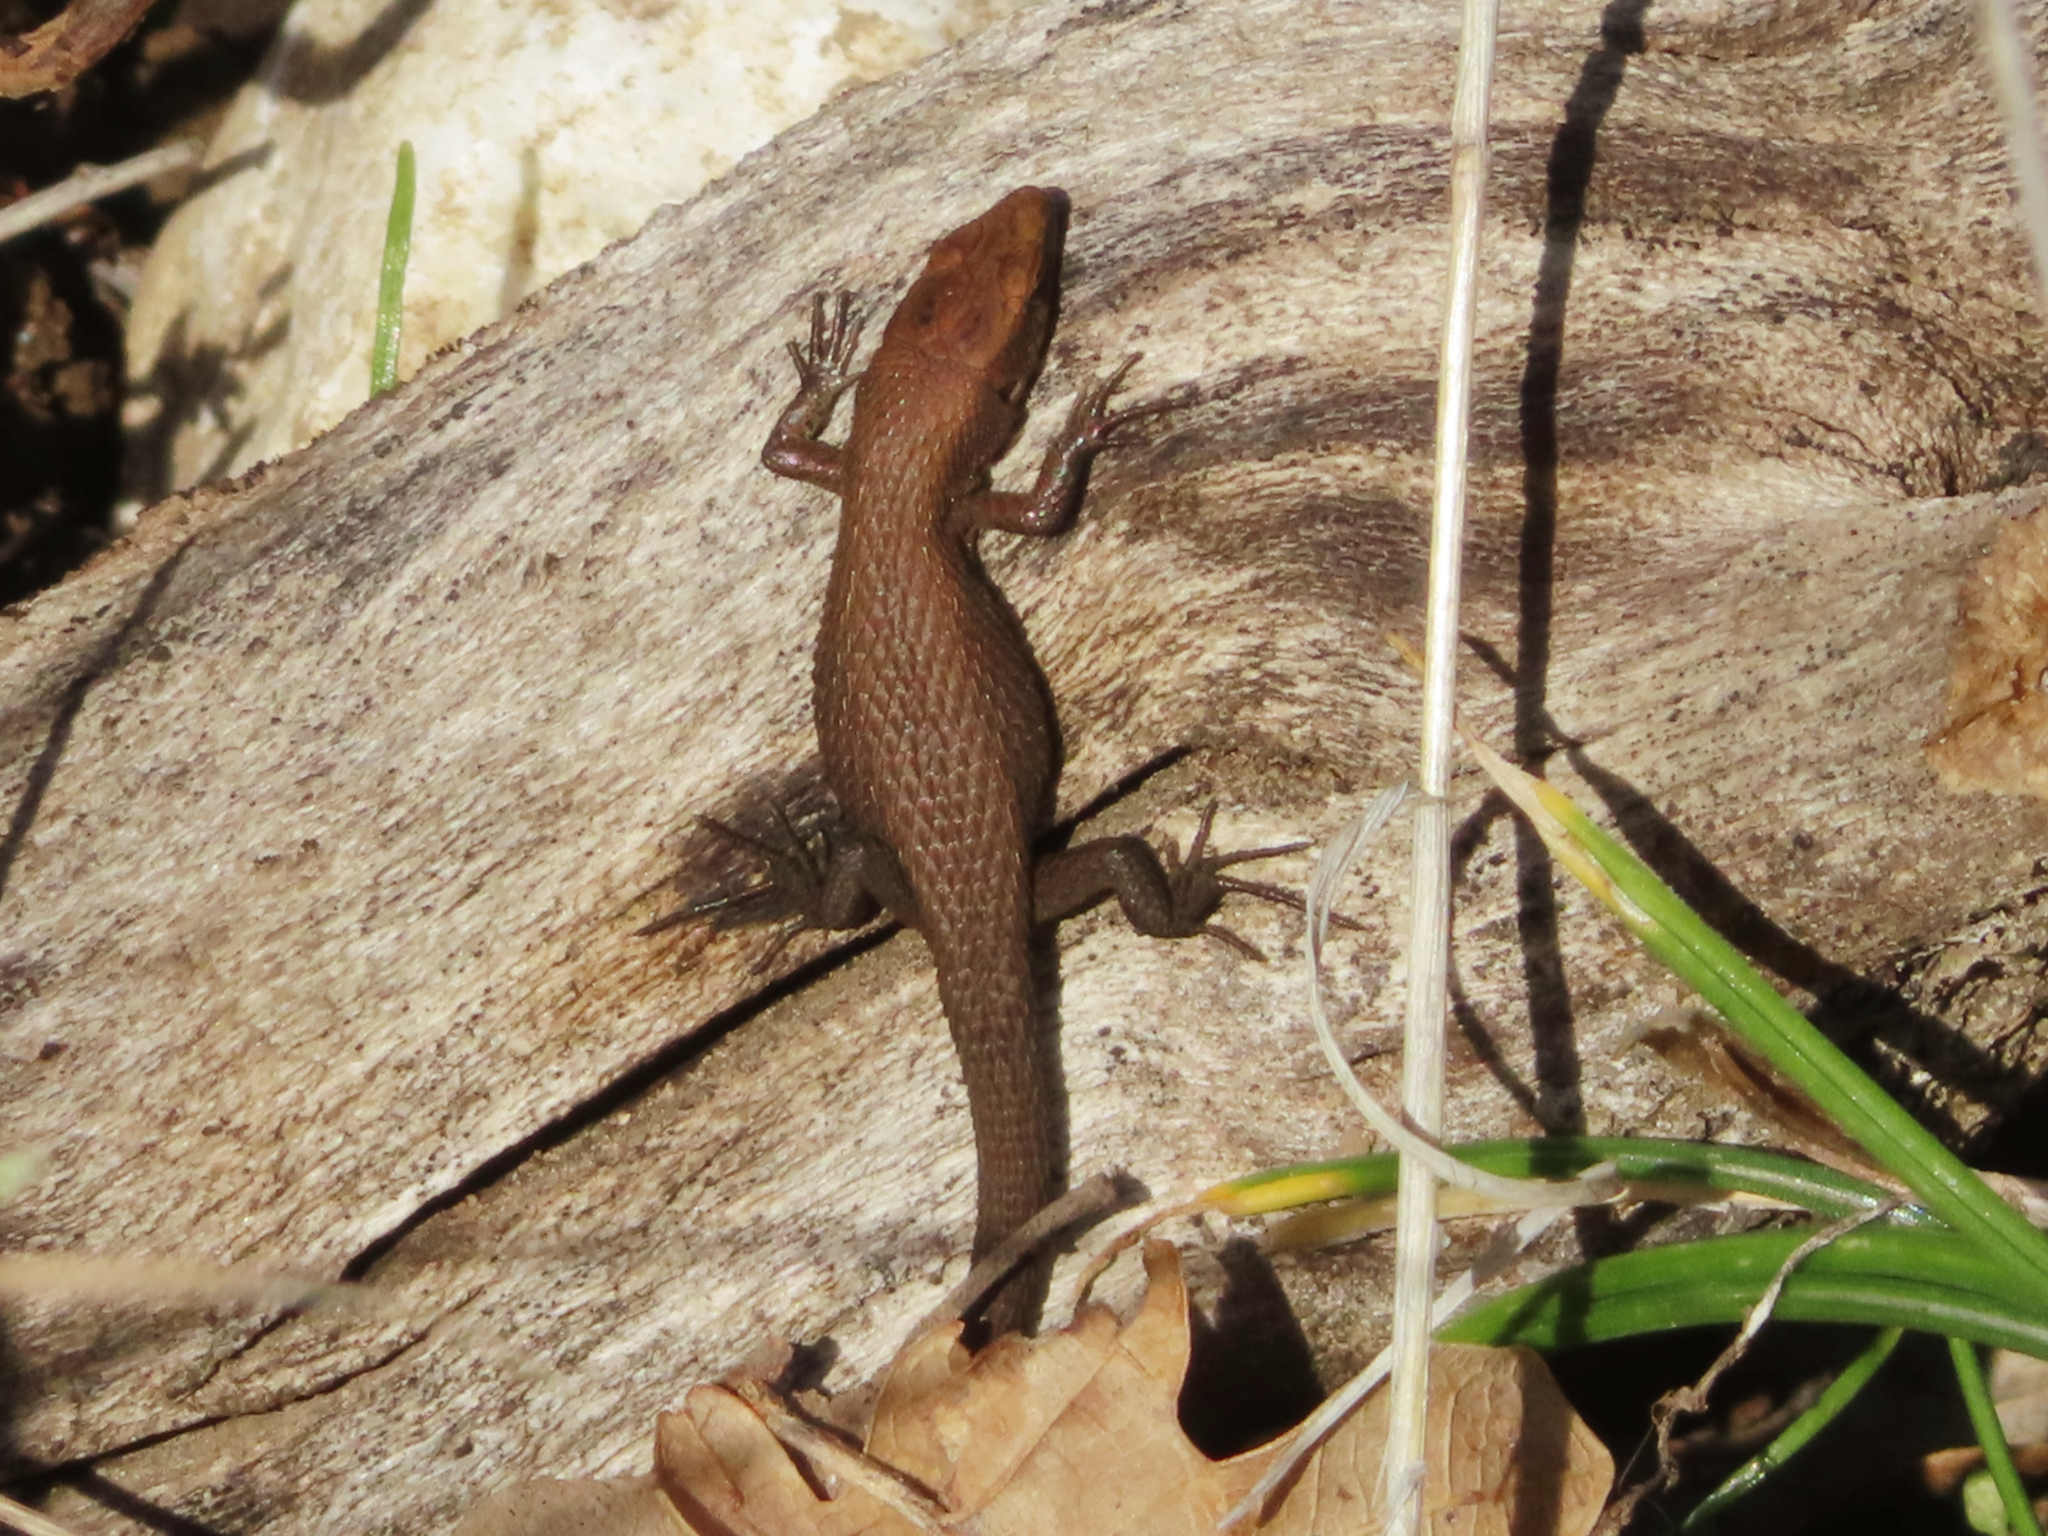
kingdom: Animalia
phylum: Chordata
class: Squamata
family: Lacertidae
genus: Algyroides
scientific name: Algyroides moreoticus
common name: Greek algyroides
